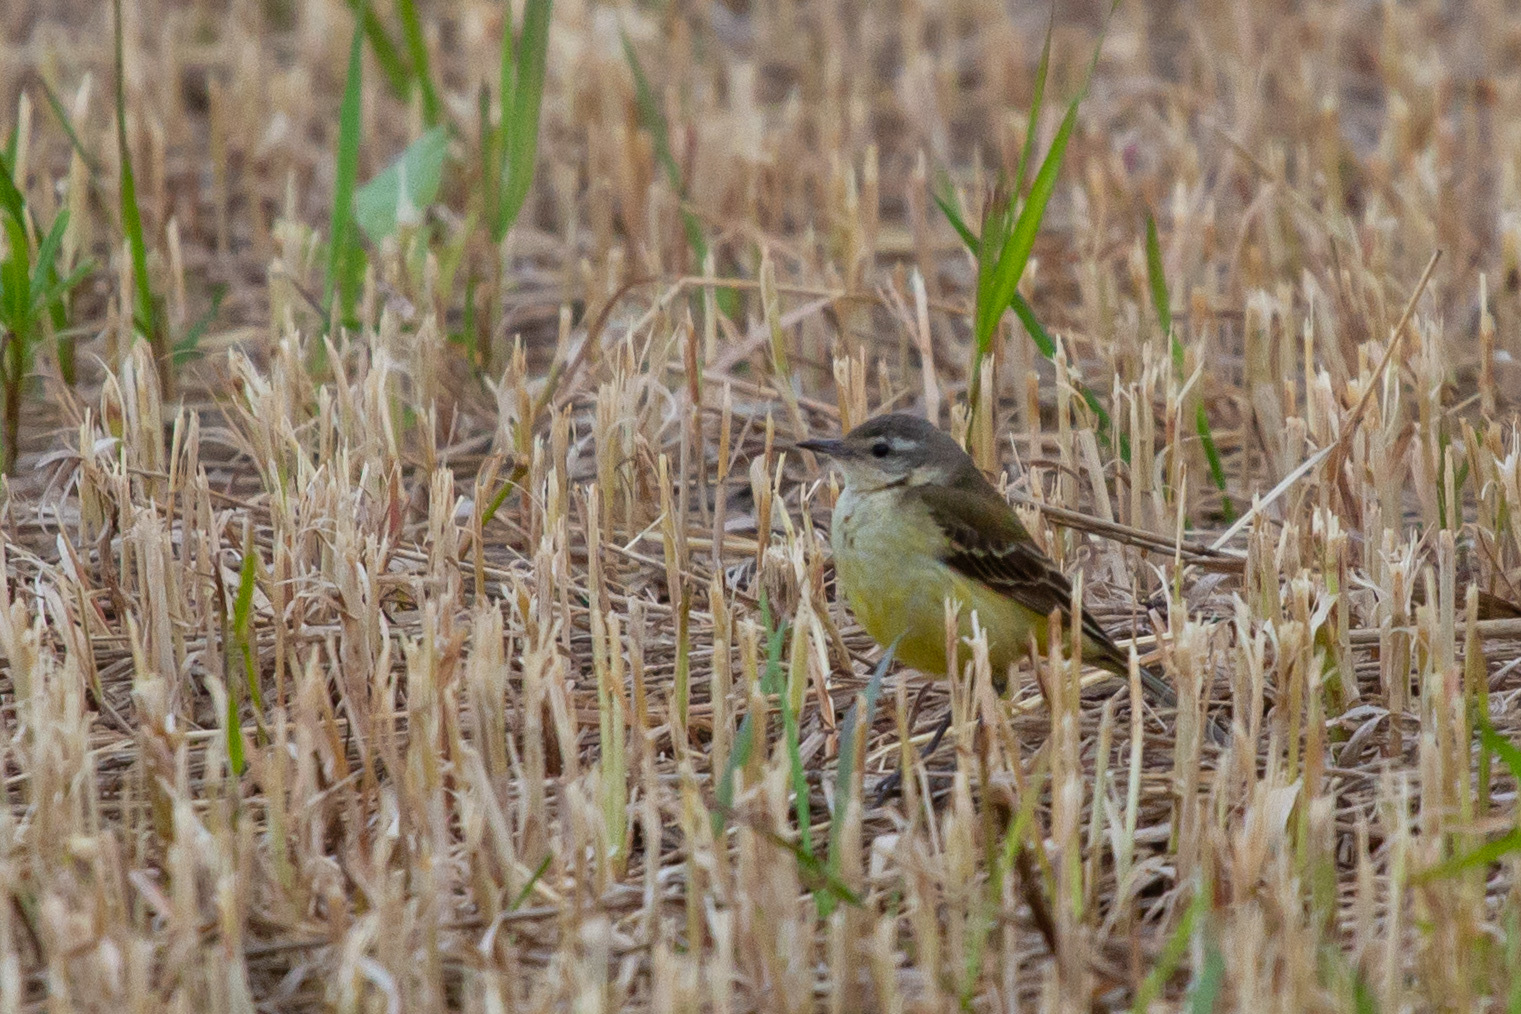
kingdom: Animalia
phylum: Chordata
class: Aves
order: Passeriformes
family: Motacillidae
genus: Motacilla
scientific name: Motacilla flava
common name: Western yellow wagtail
